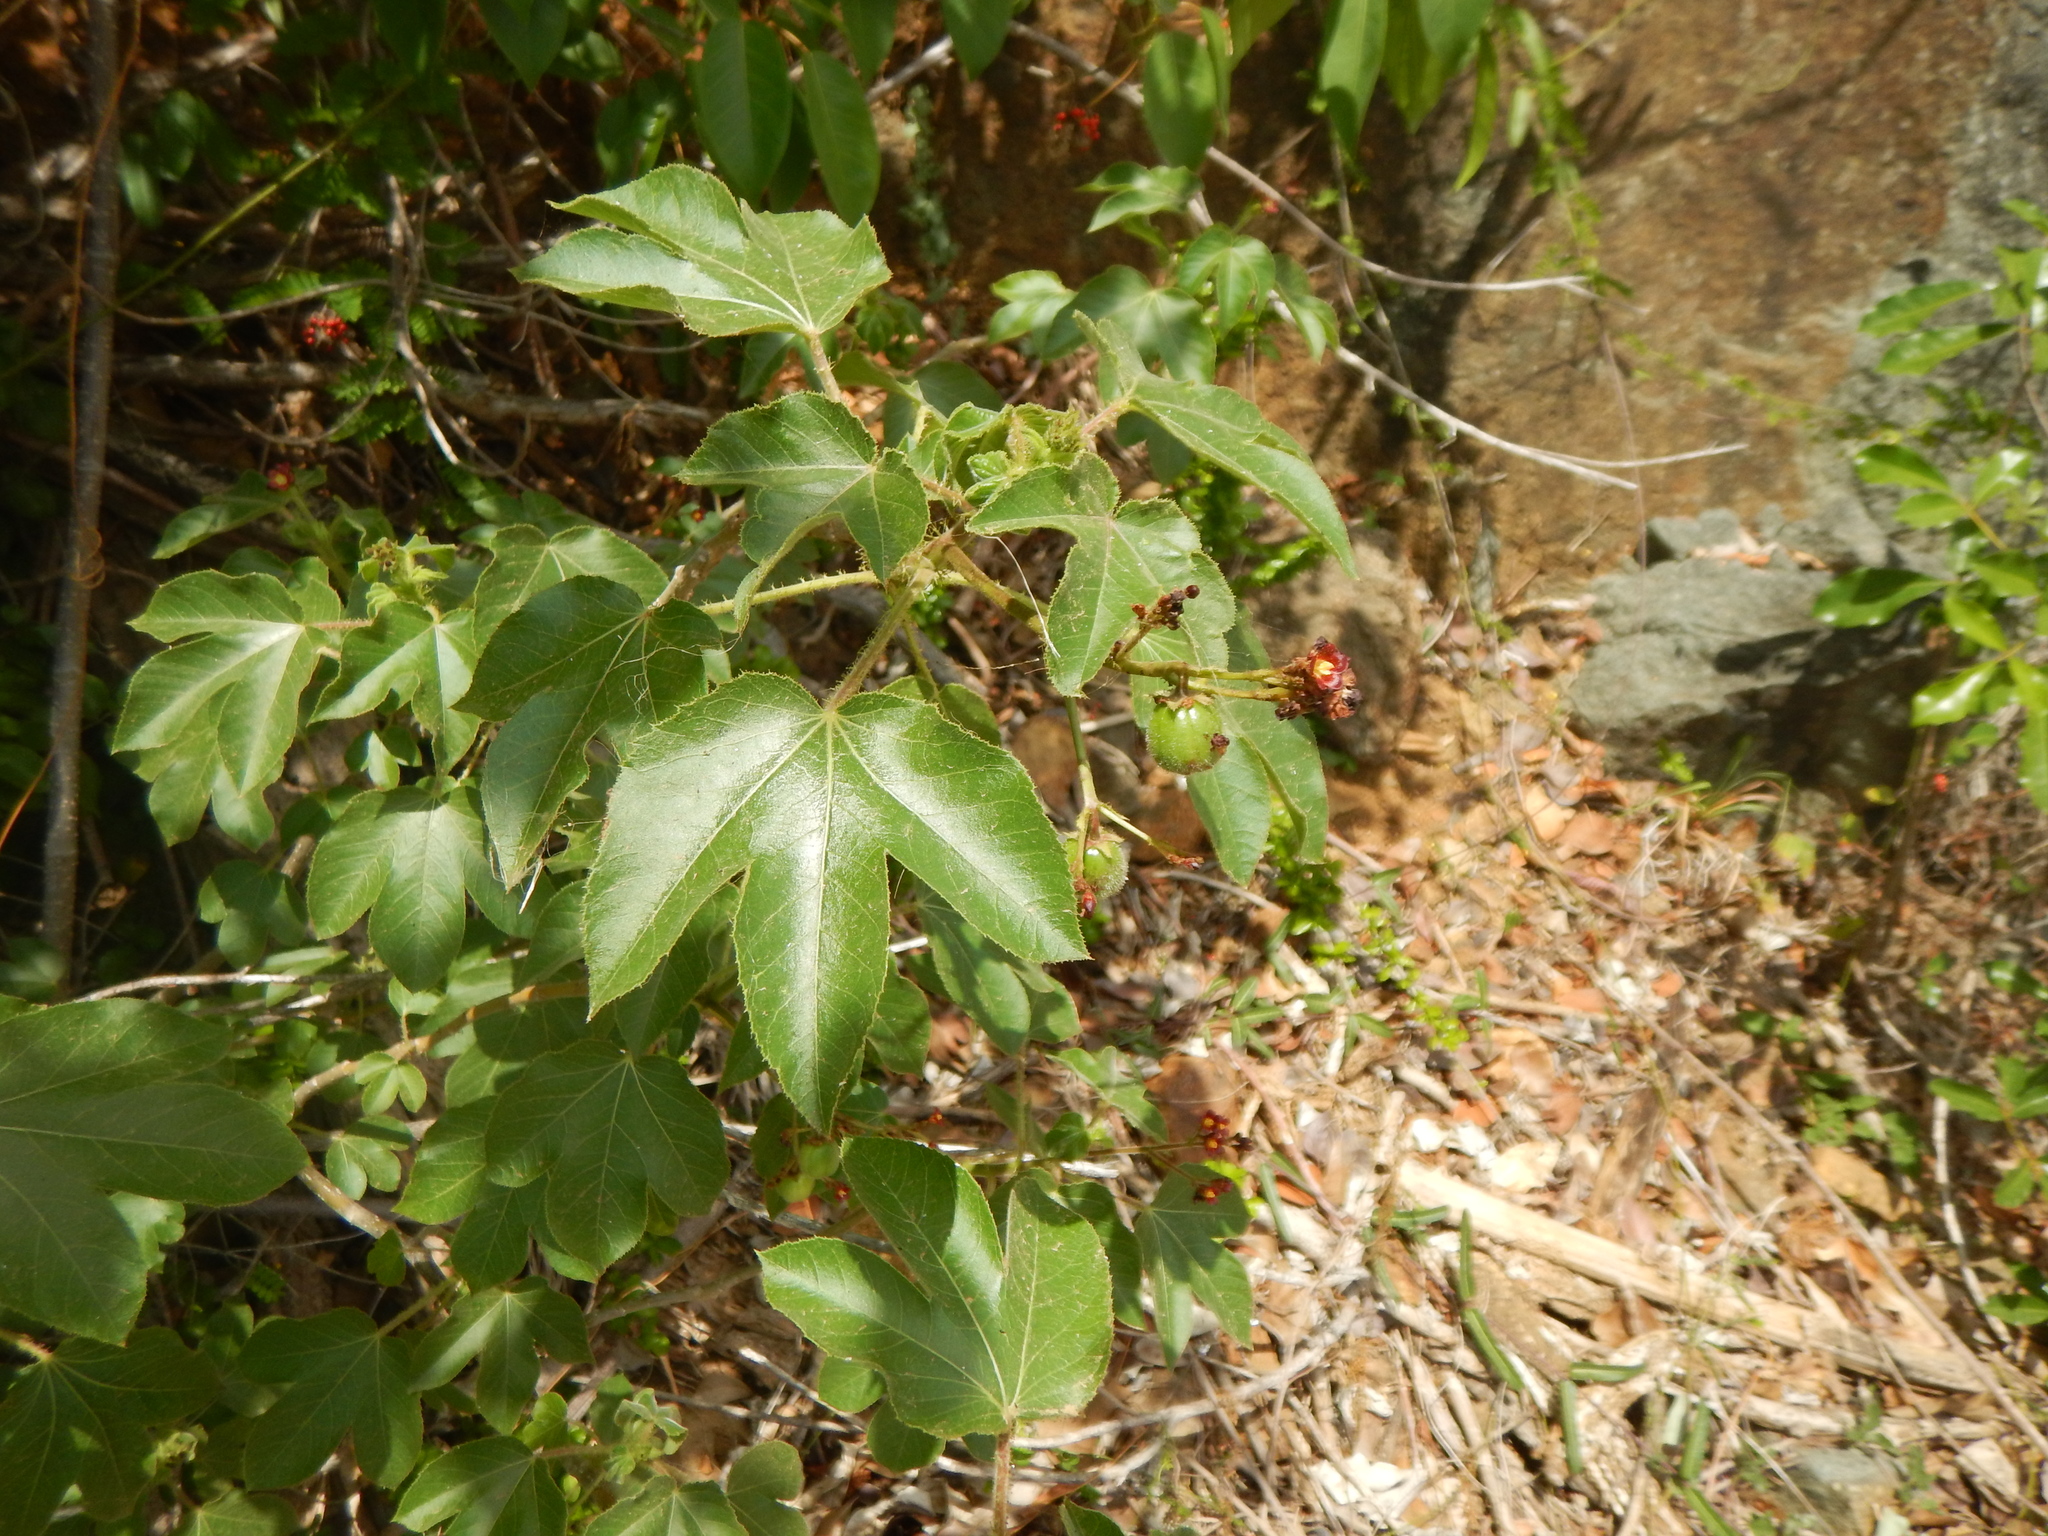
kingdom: Plantae
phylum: Tracheophyta
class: Magnoliopsida
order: Malpighiales
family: Euphorbiaceae
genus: Jatropha
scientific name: Jatropha gossypiifolia
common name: Bellyache bush
